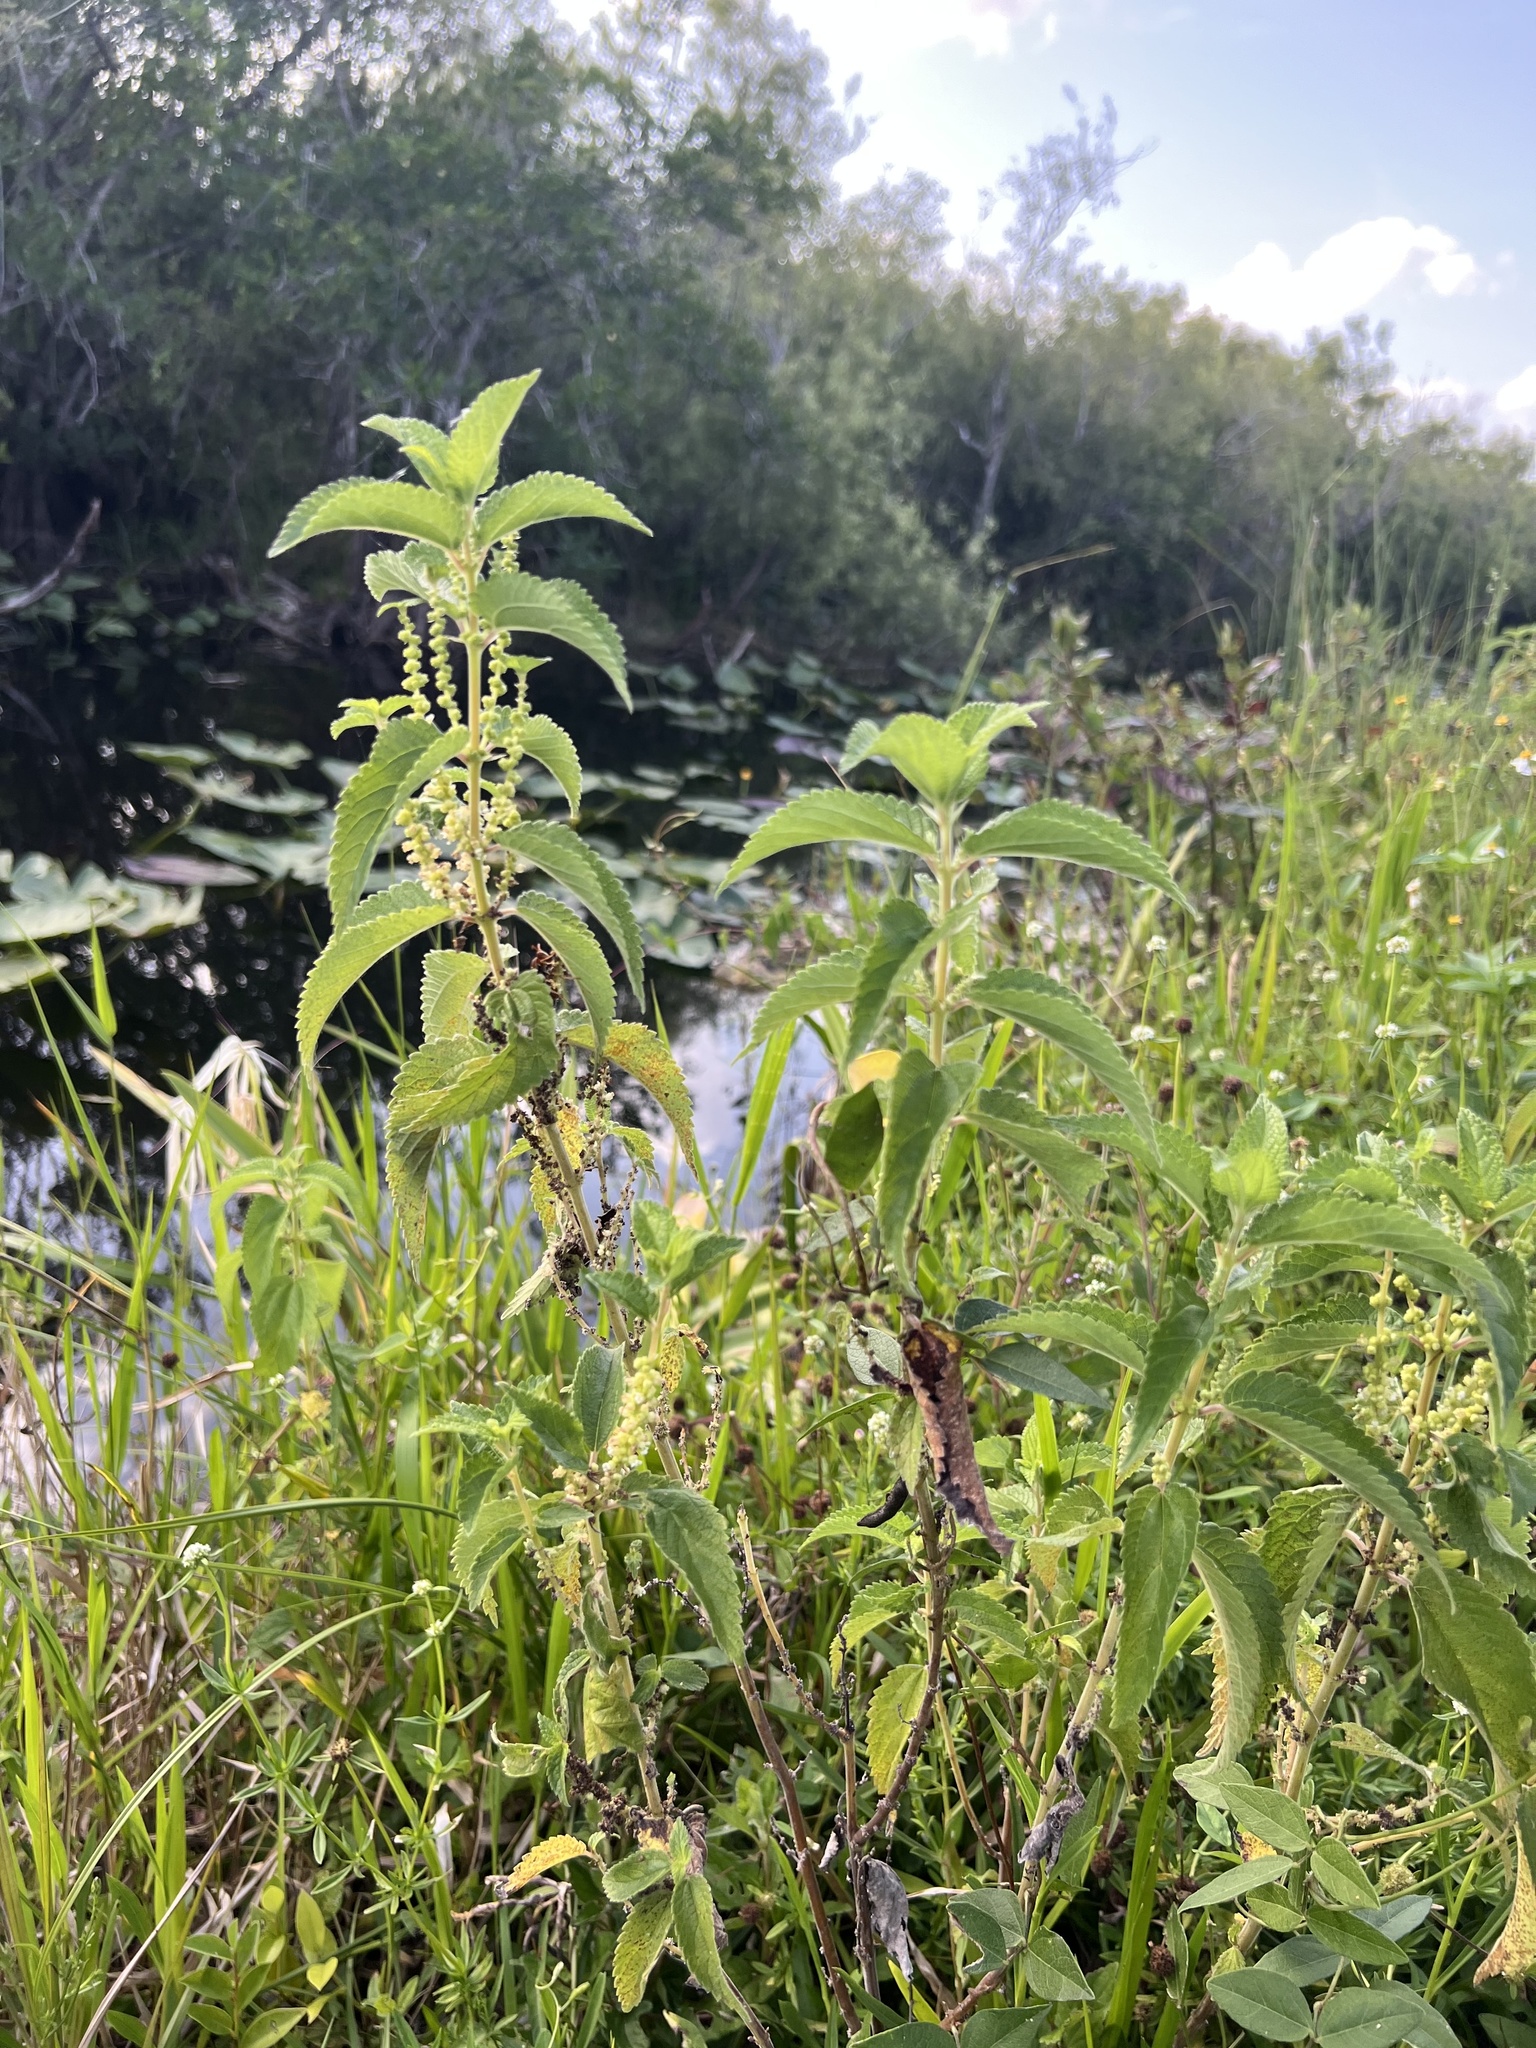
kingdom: Plantae
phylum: Tracheophyta
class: Magnoliopsida
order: Rosales
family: Urticaceae
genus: Boehmeria
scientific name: Boehmeria cylindrica
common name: Bog-hemp
